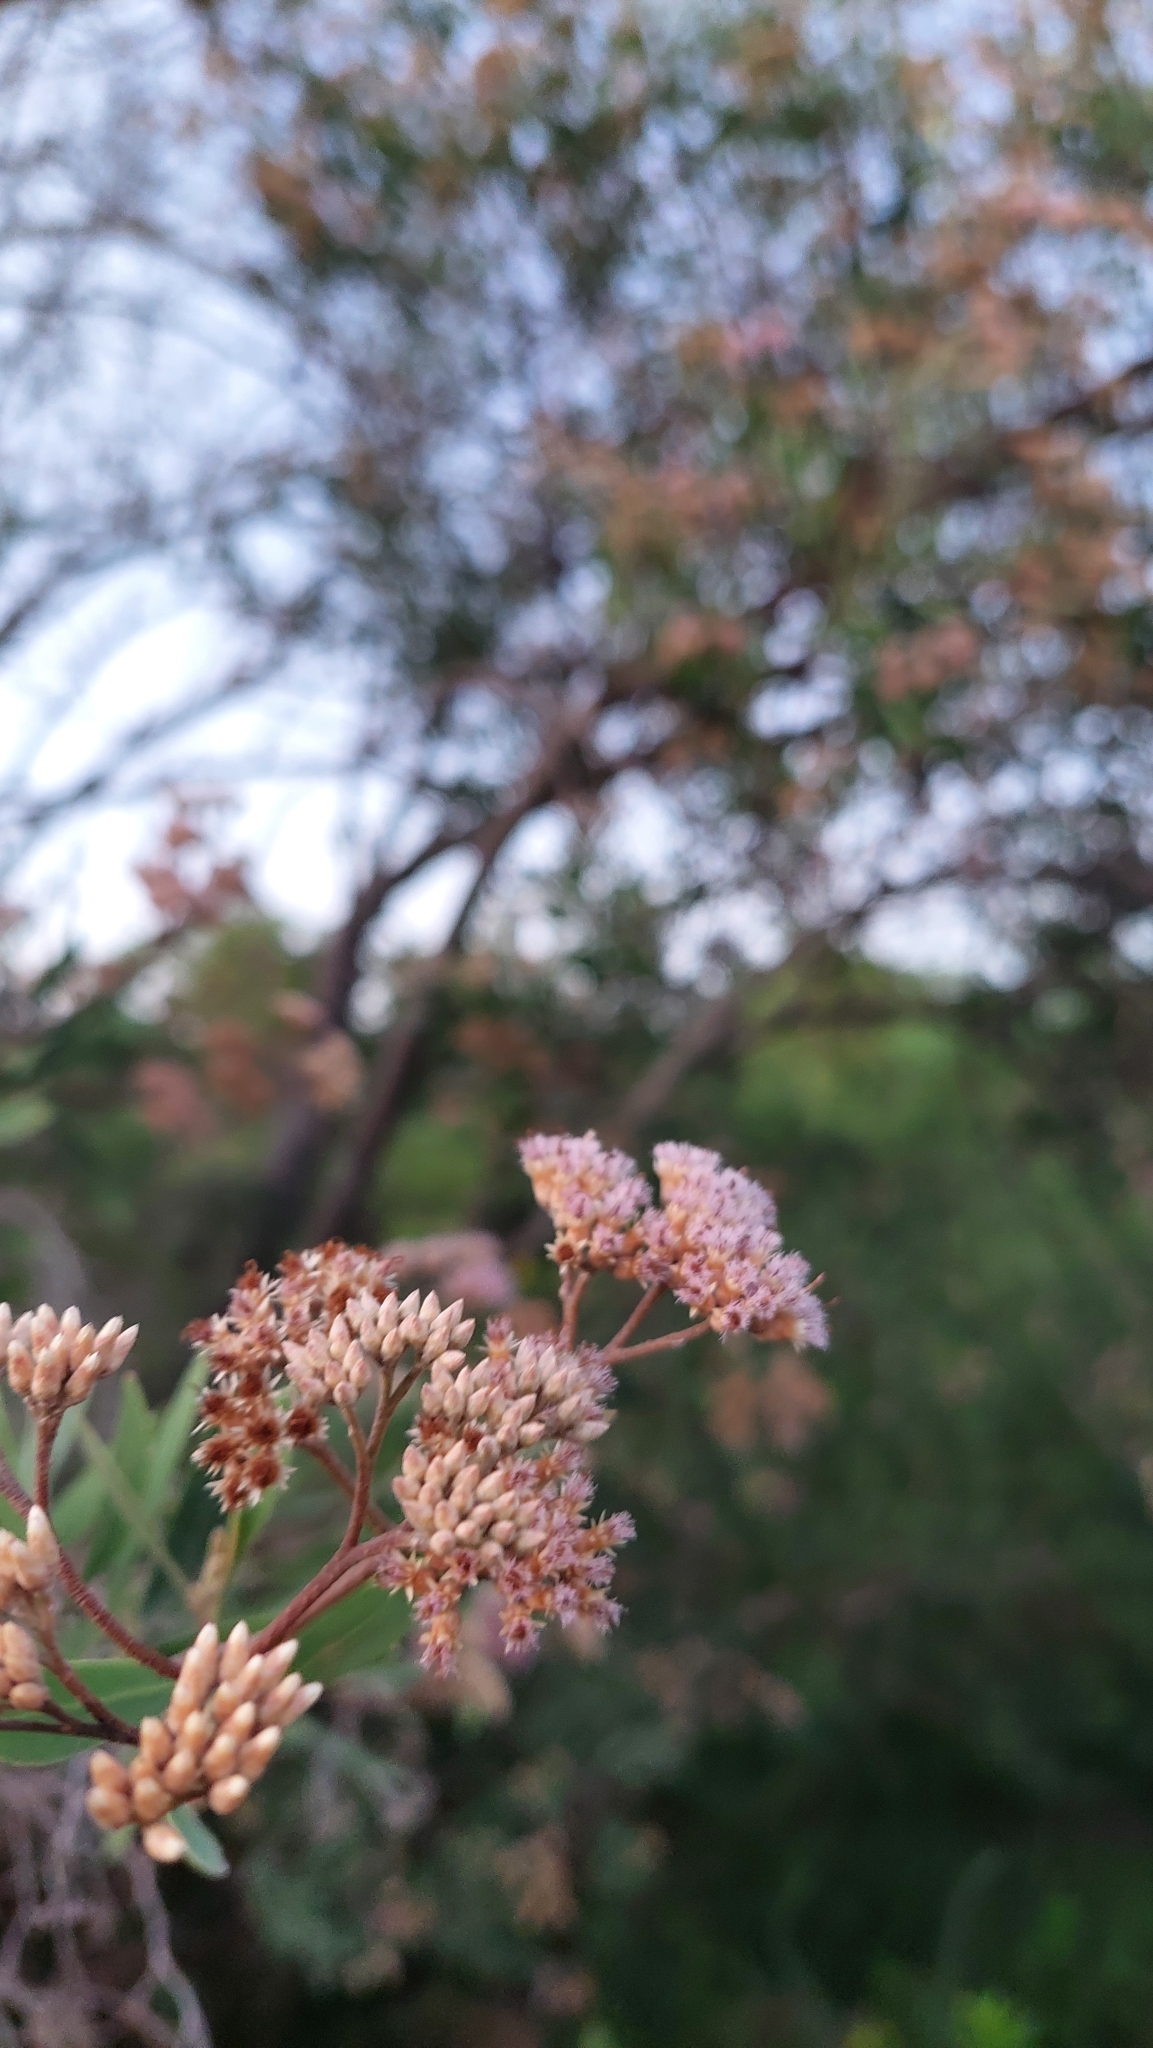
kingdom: Plantae
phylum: Tracheophyta
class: Magnoliopsida
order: Asterales
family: Asteraceae
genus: Tessaria
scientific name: Tessaria integrifolia
